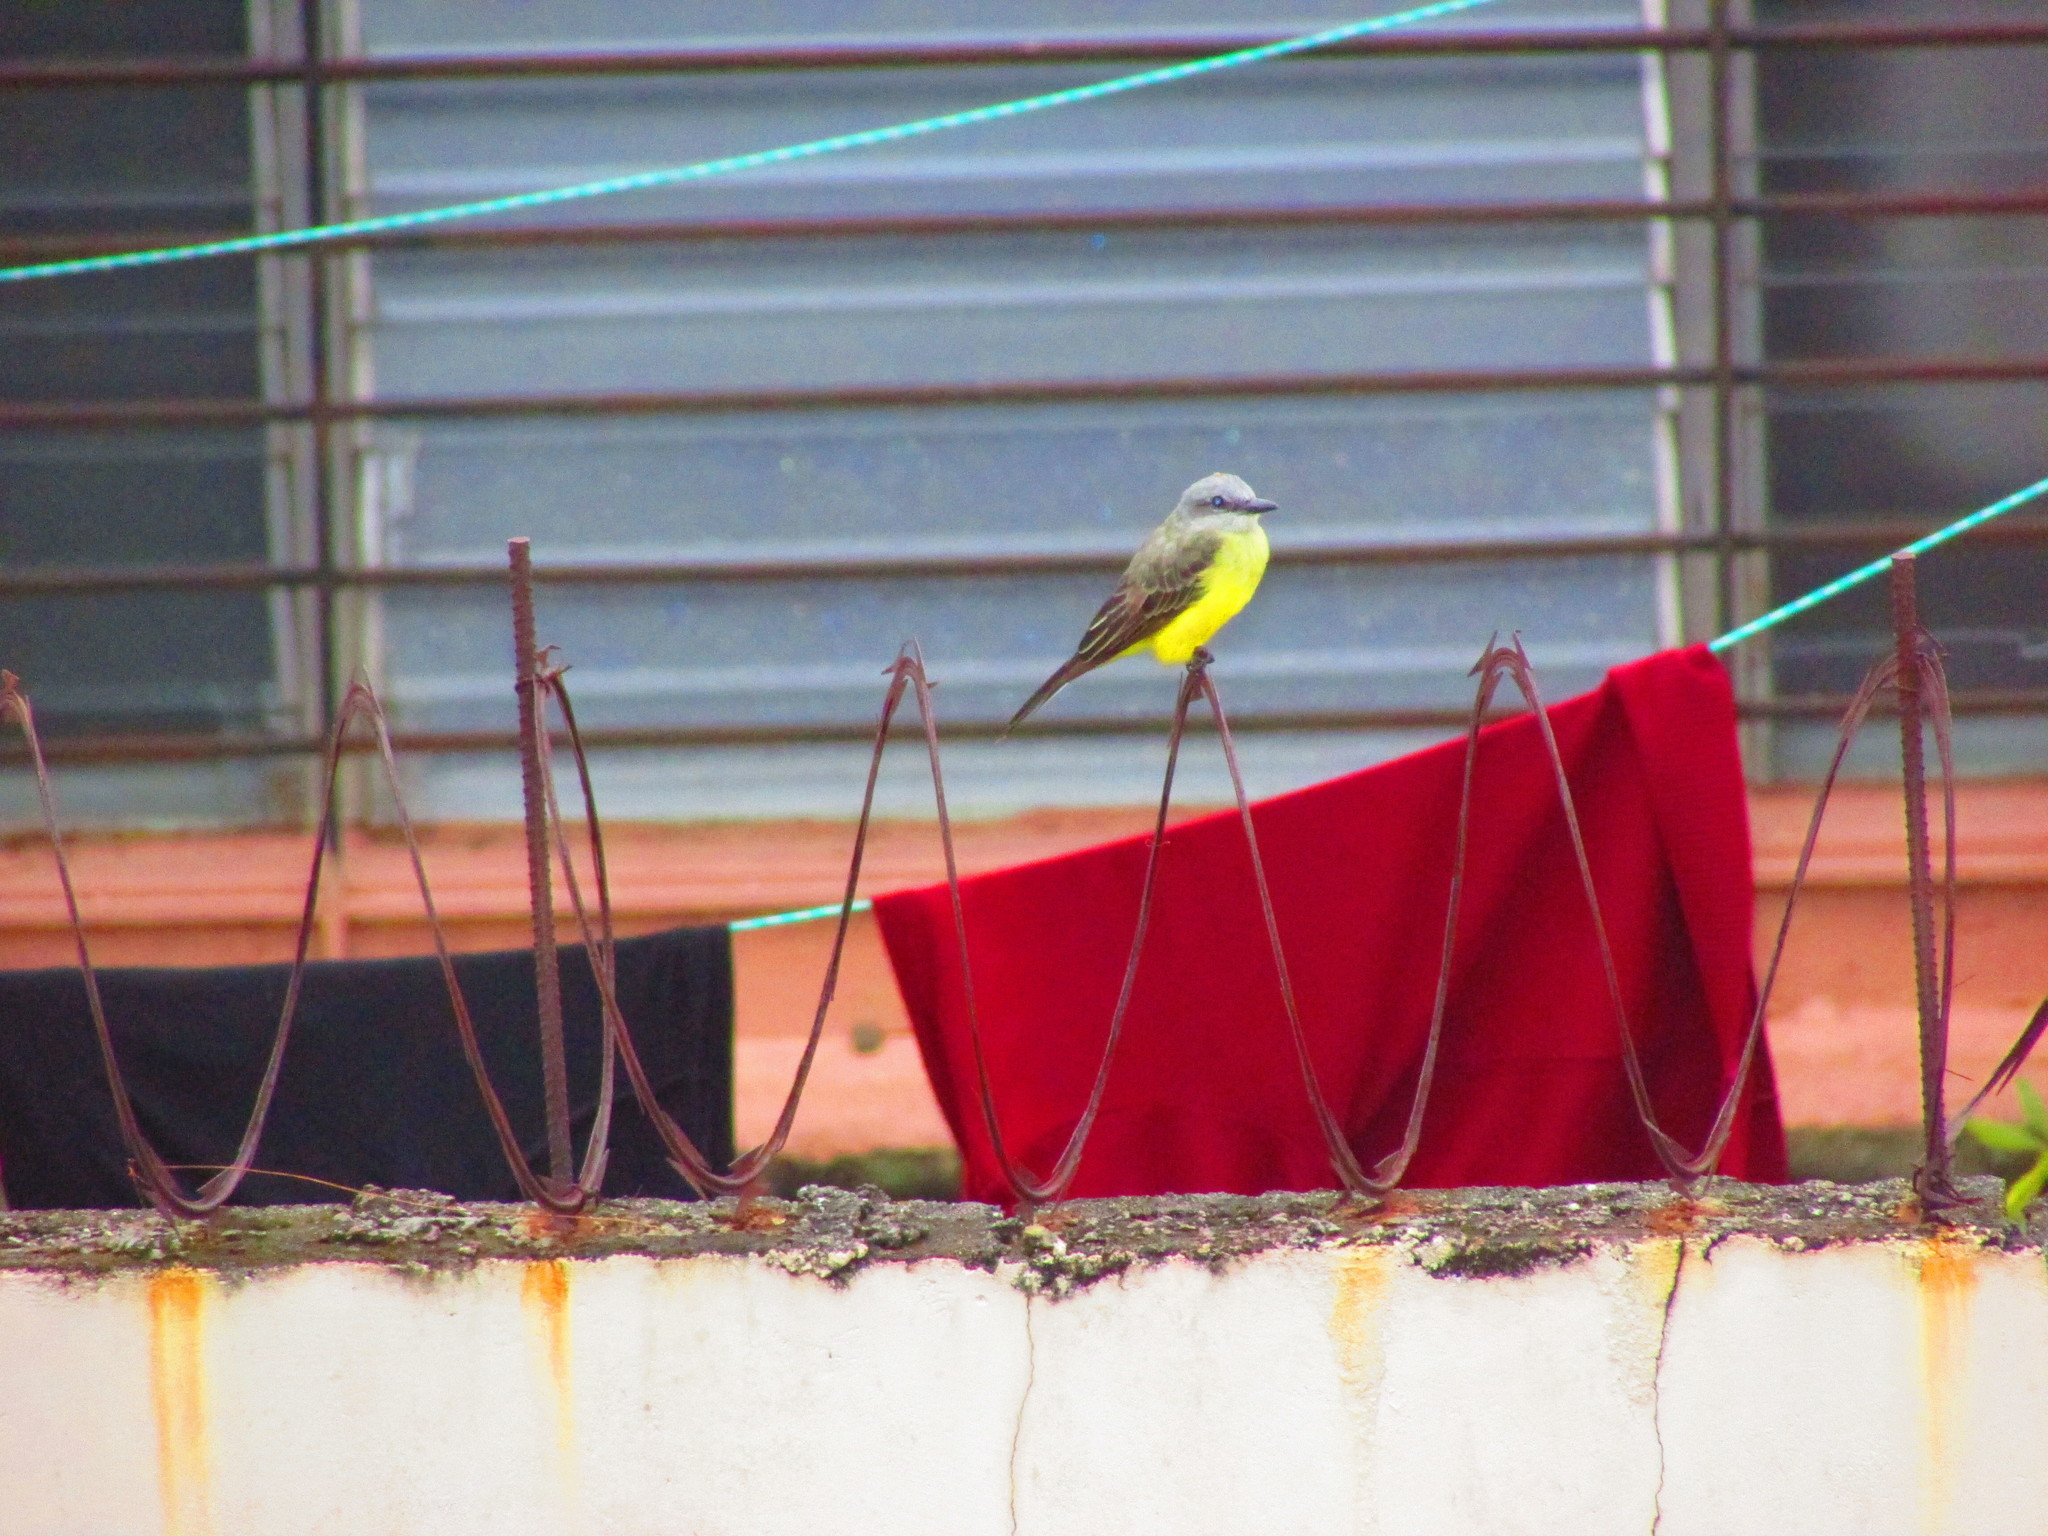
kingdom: Animalia
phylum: Chordata
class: Aves
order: Passeriformes
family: Tyrannidae
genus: Tyrannus
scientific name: Tyrannus melancholicus
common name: Tropical kingbird
